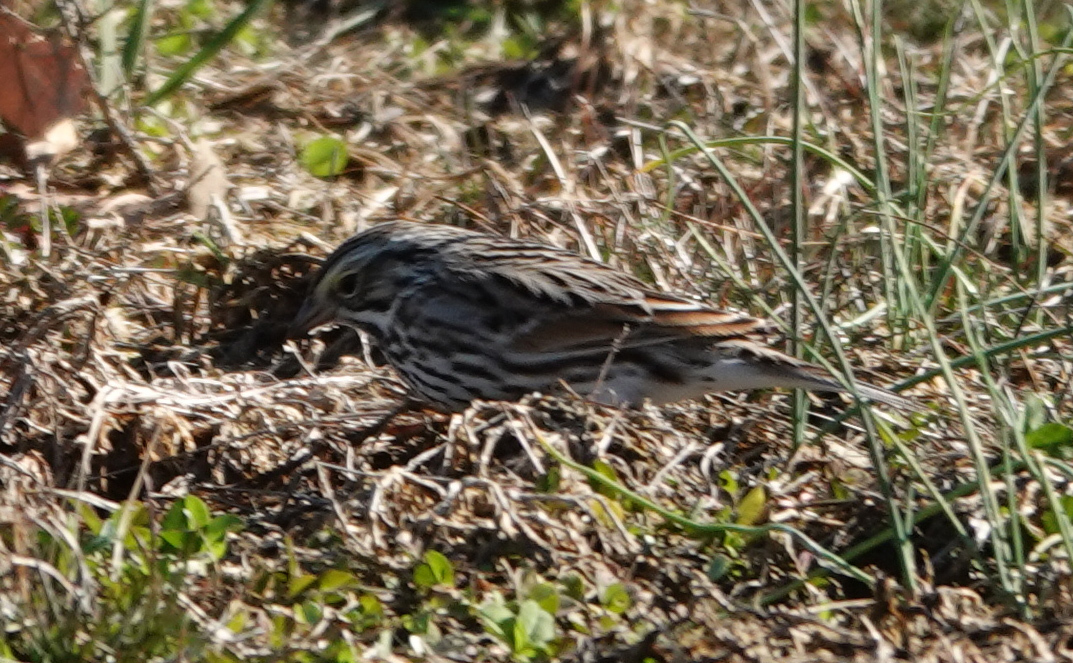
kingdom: Animalia
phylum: Chordata
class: Aves
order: Passeriformes
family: Passerellidae
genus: Passerculus
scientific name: Passerculus sandwichensis
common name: Savannah sparrow
